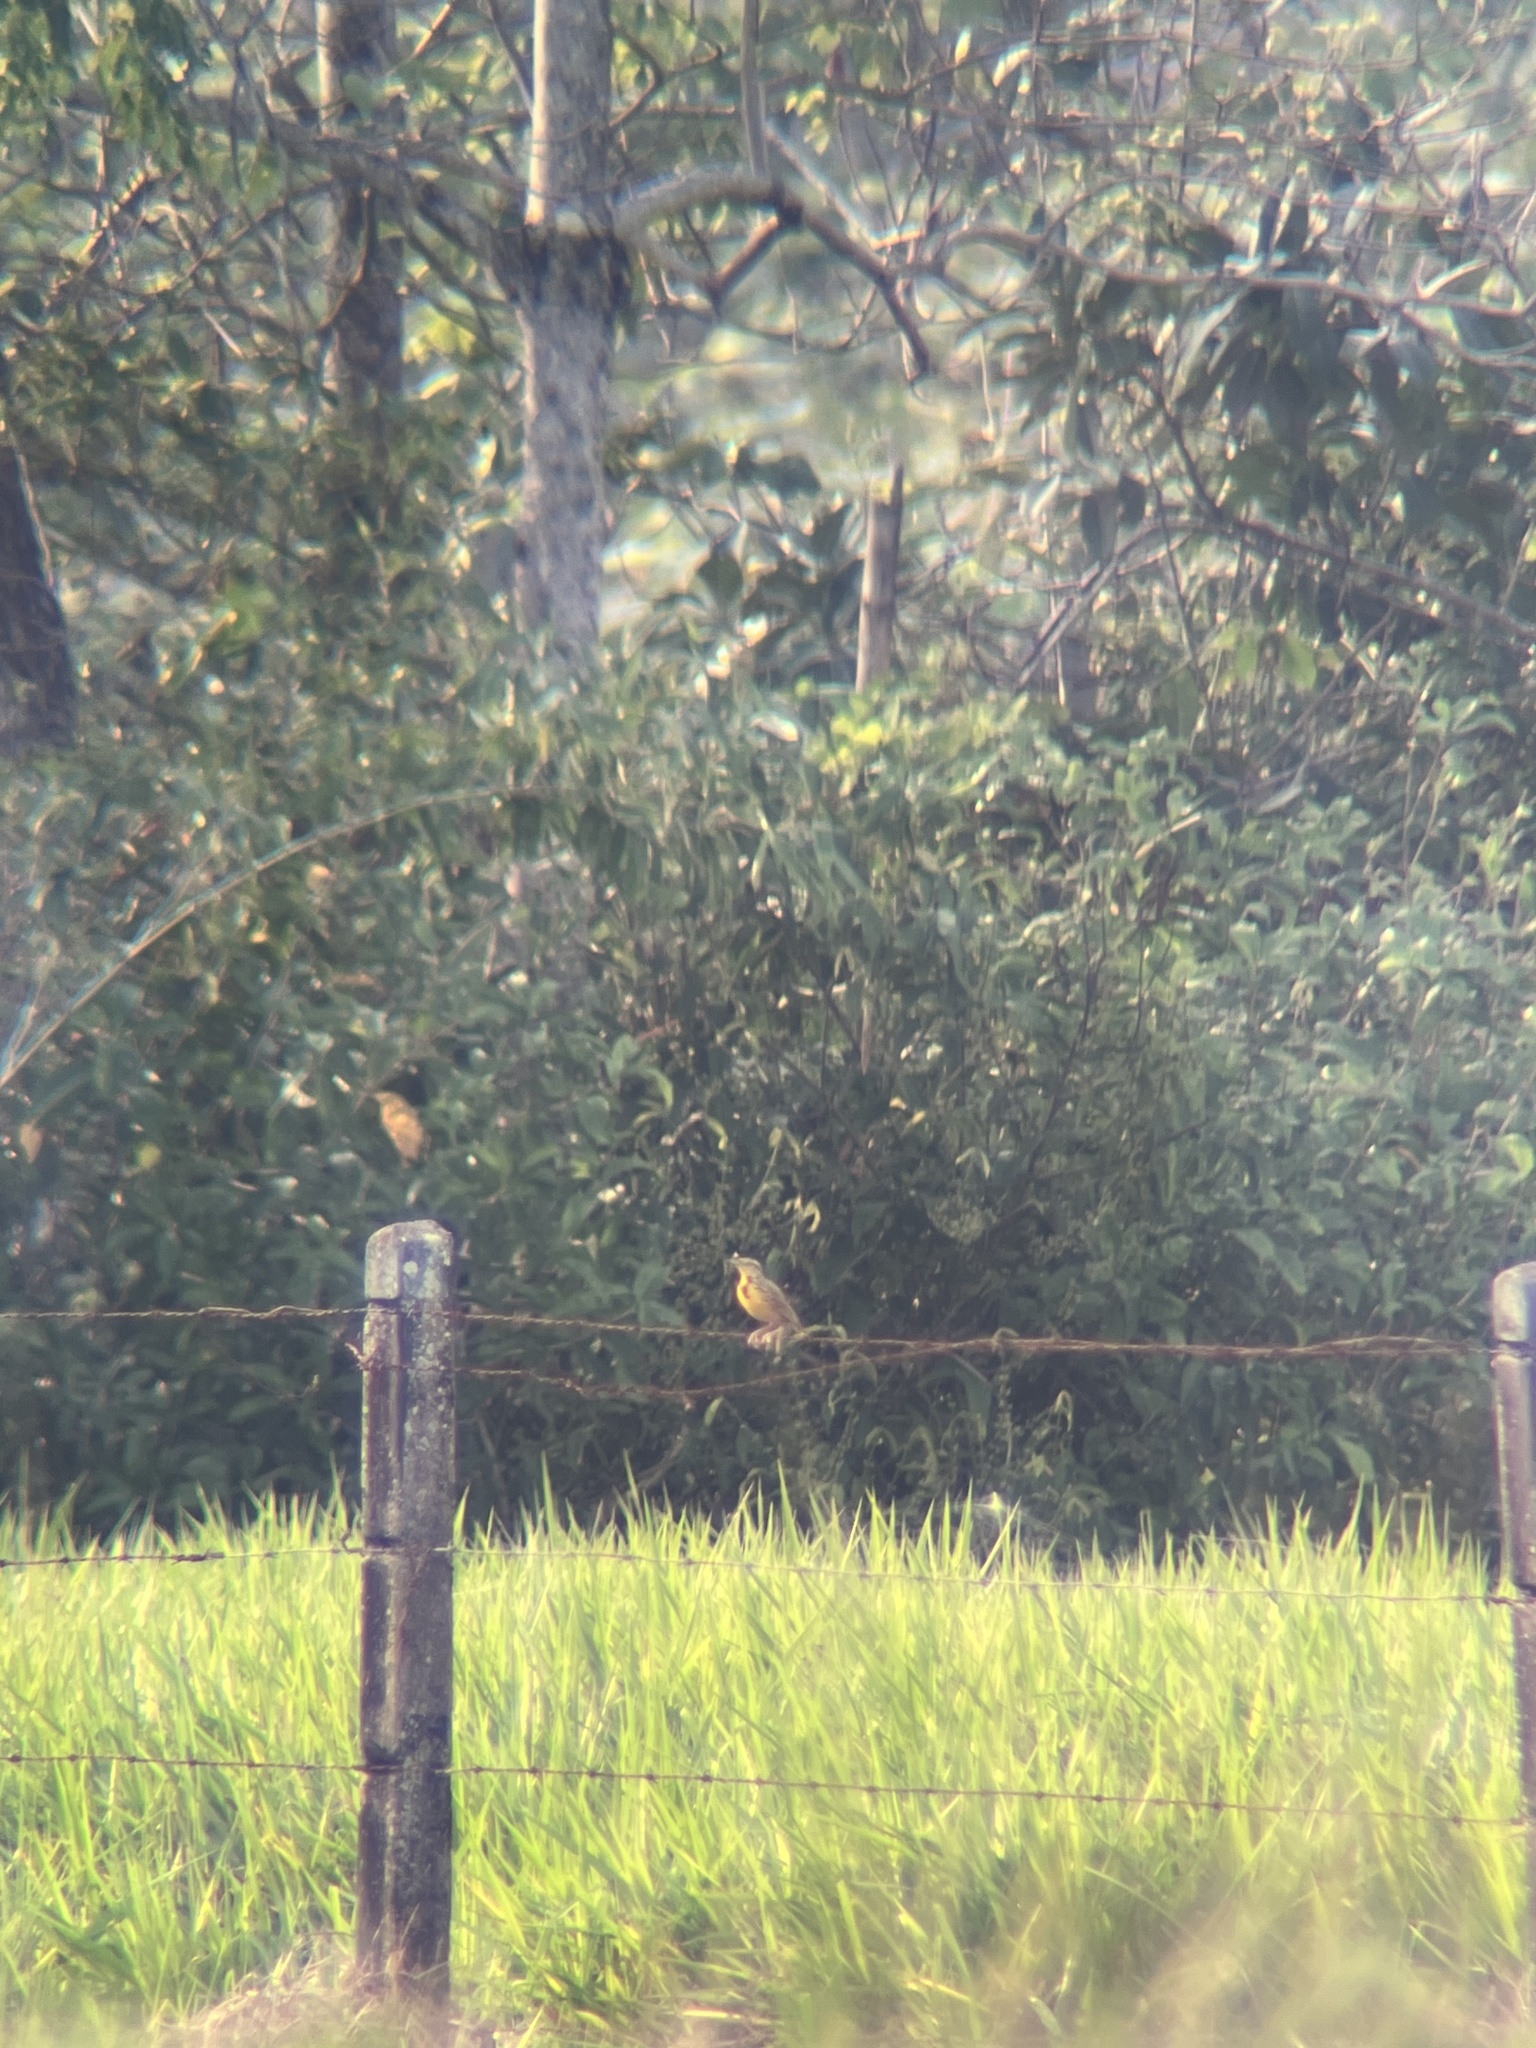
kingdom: Animalia
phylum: Chordata
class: Aves
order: Passeriformes
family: Icteridae
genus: Sturnella
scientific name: Sturnella magna
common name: Eastern meadowlark
